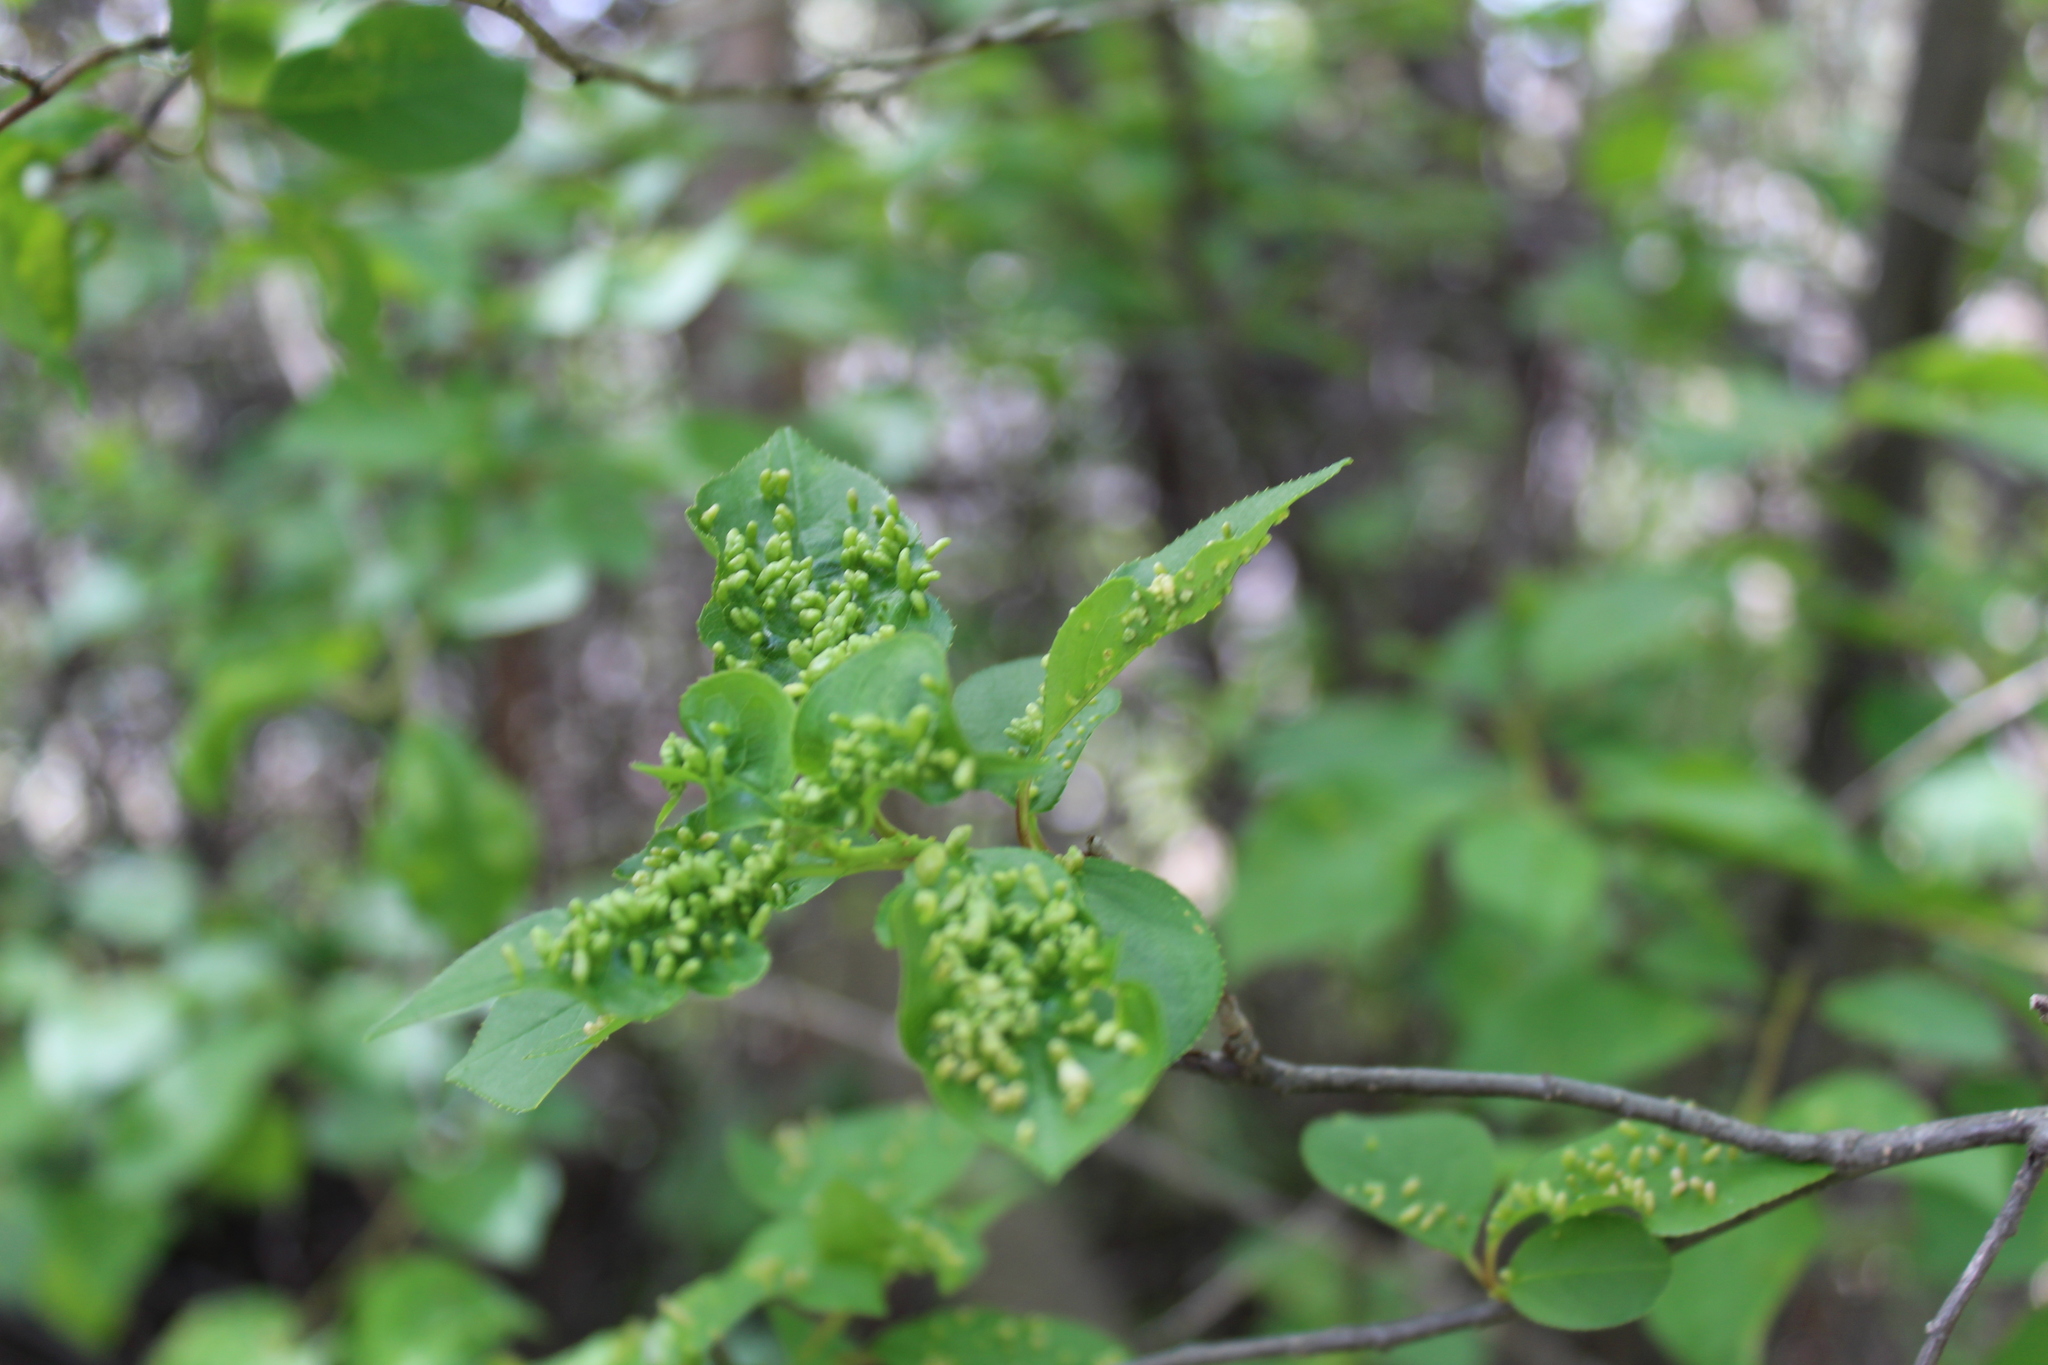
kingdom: Animalia
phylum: Arthropoda
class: Arachnida
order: Trombidiformes
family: Eriophyidae
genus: Eriophyes
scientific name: Eriophyes emarginatae
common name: Plum leaf gall mite
